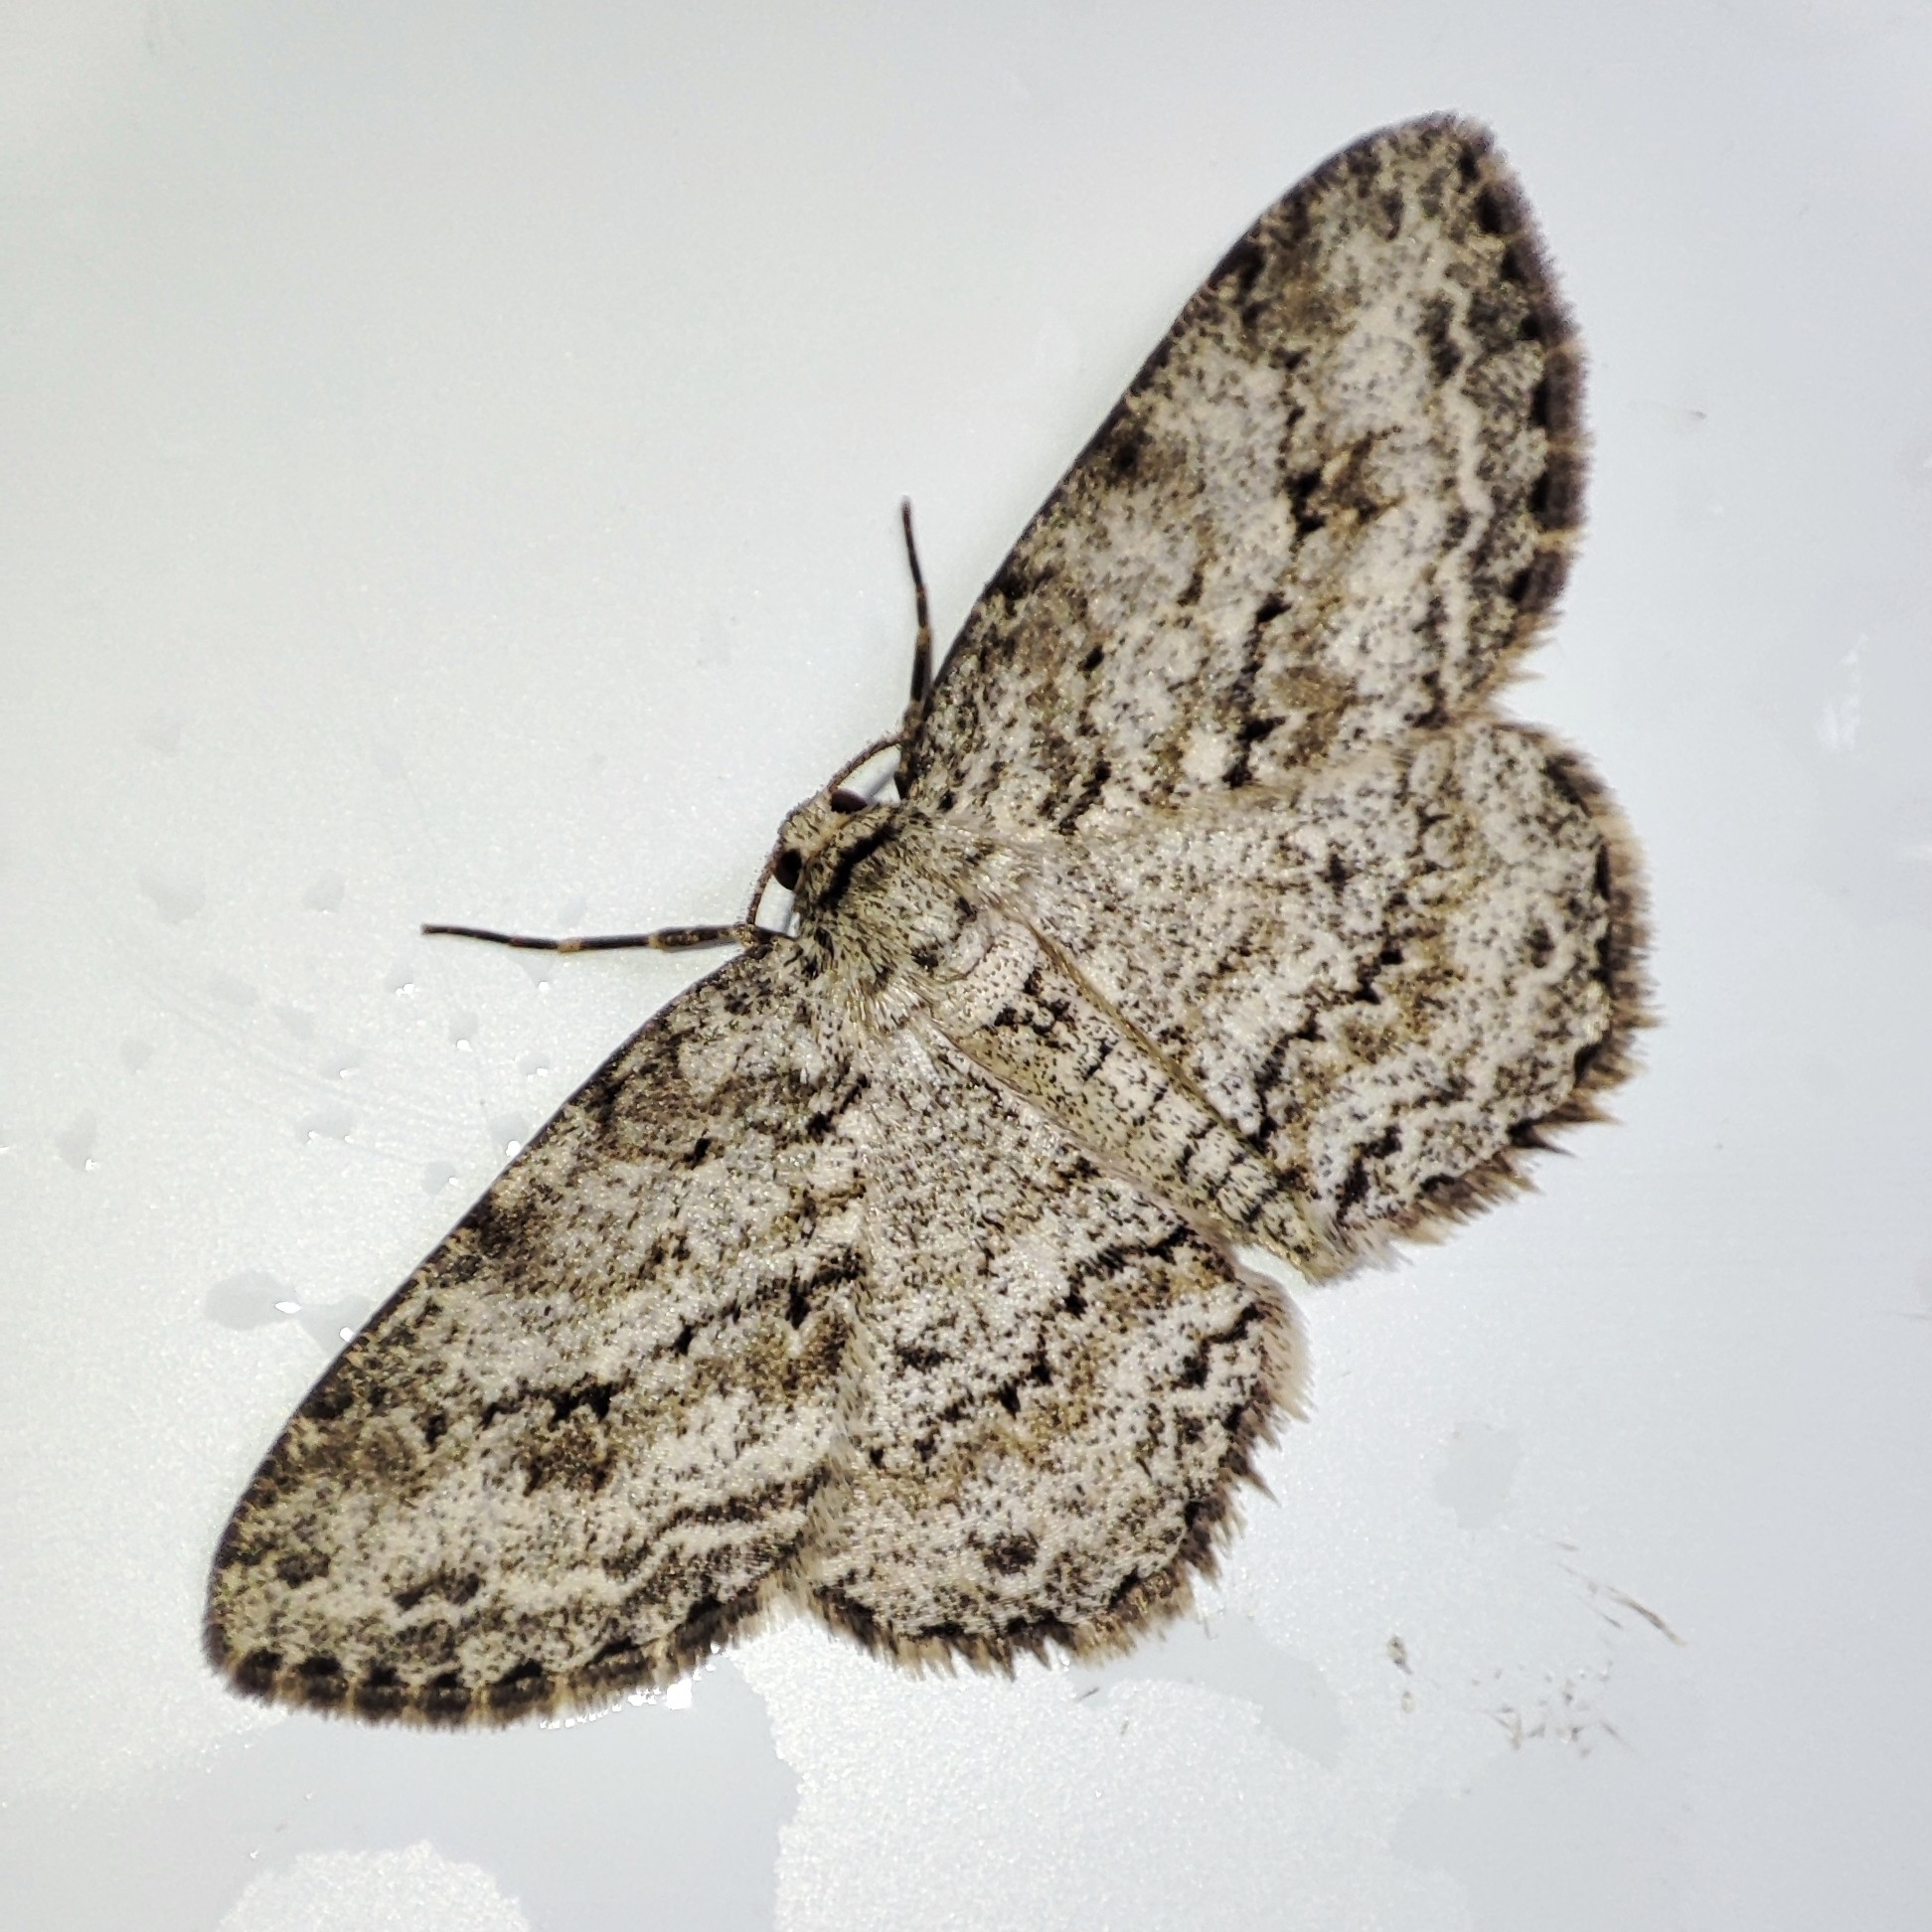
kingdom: Animalia
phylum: Arthropoda
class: Insecta
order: Lepidoptera
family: Geometridae
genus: Ectropis
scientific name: Ectropis crepuscularia
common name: Engrailed
